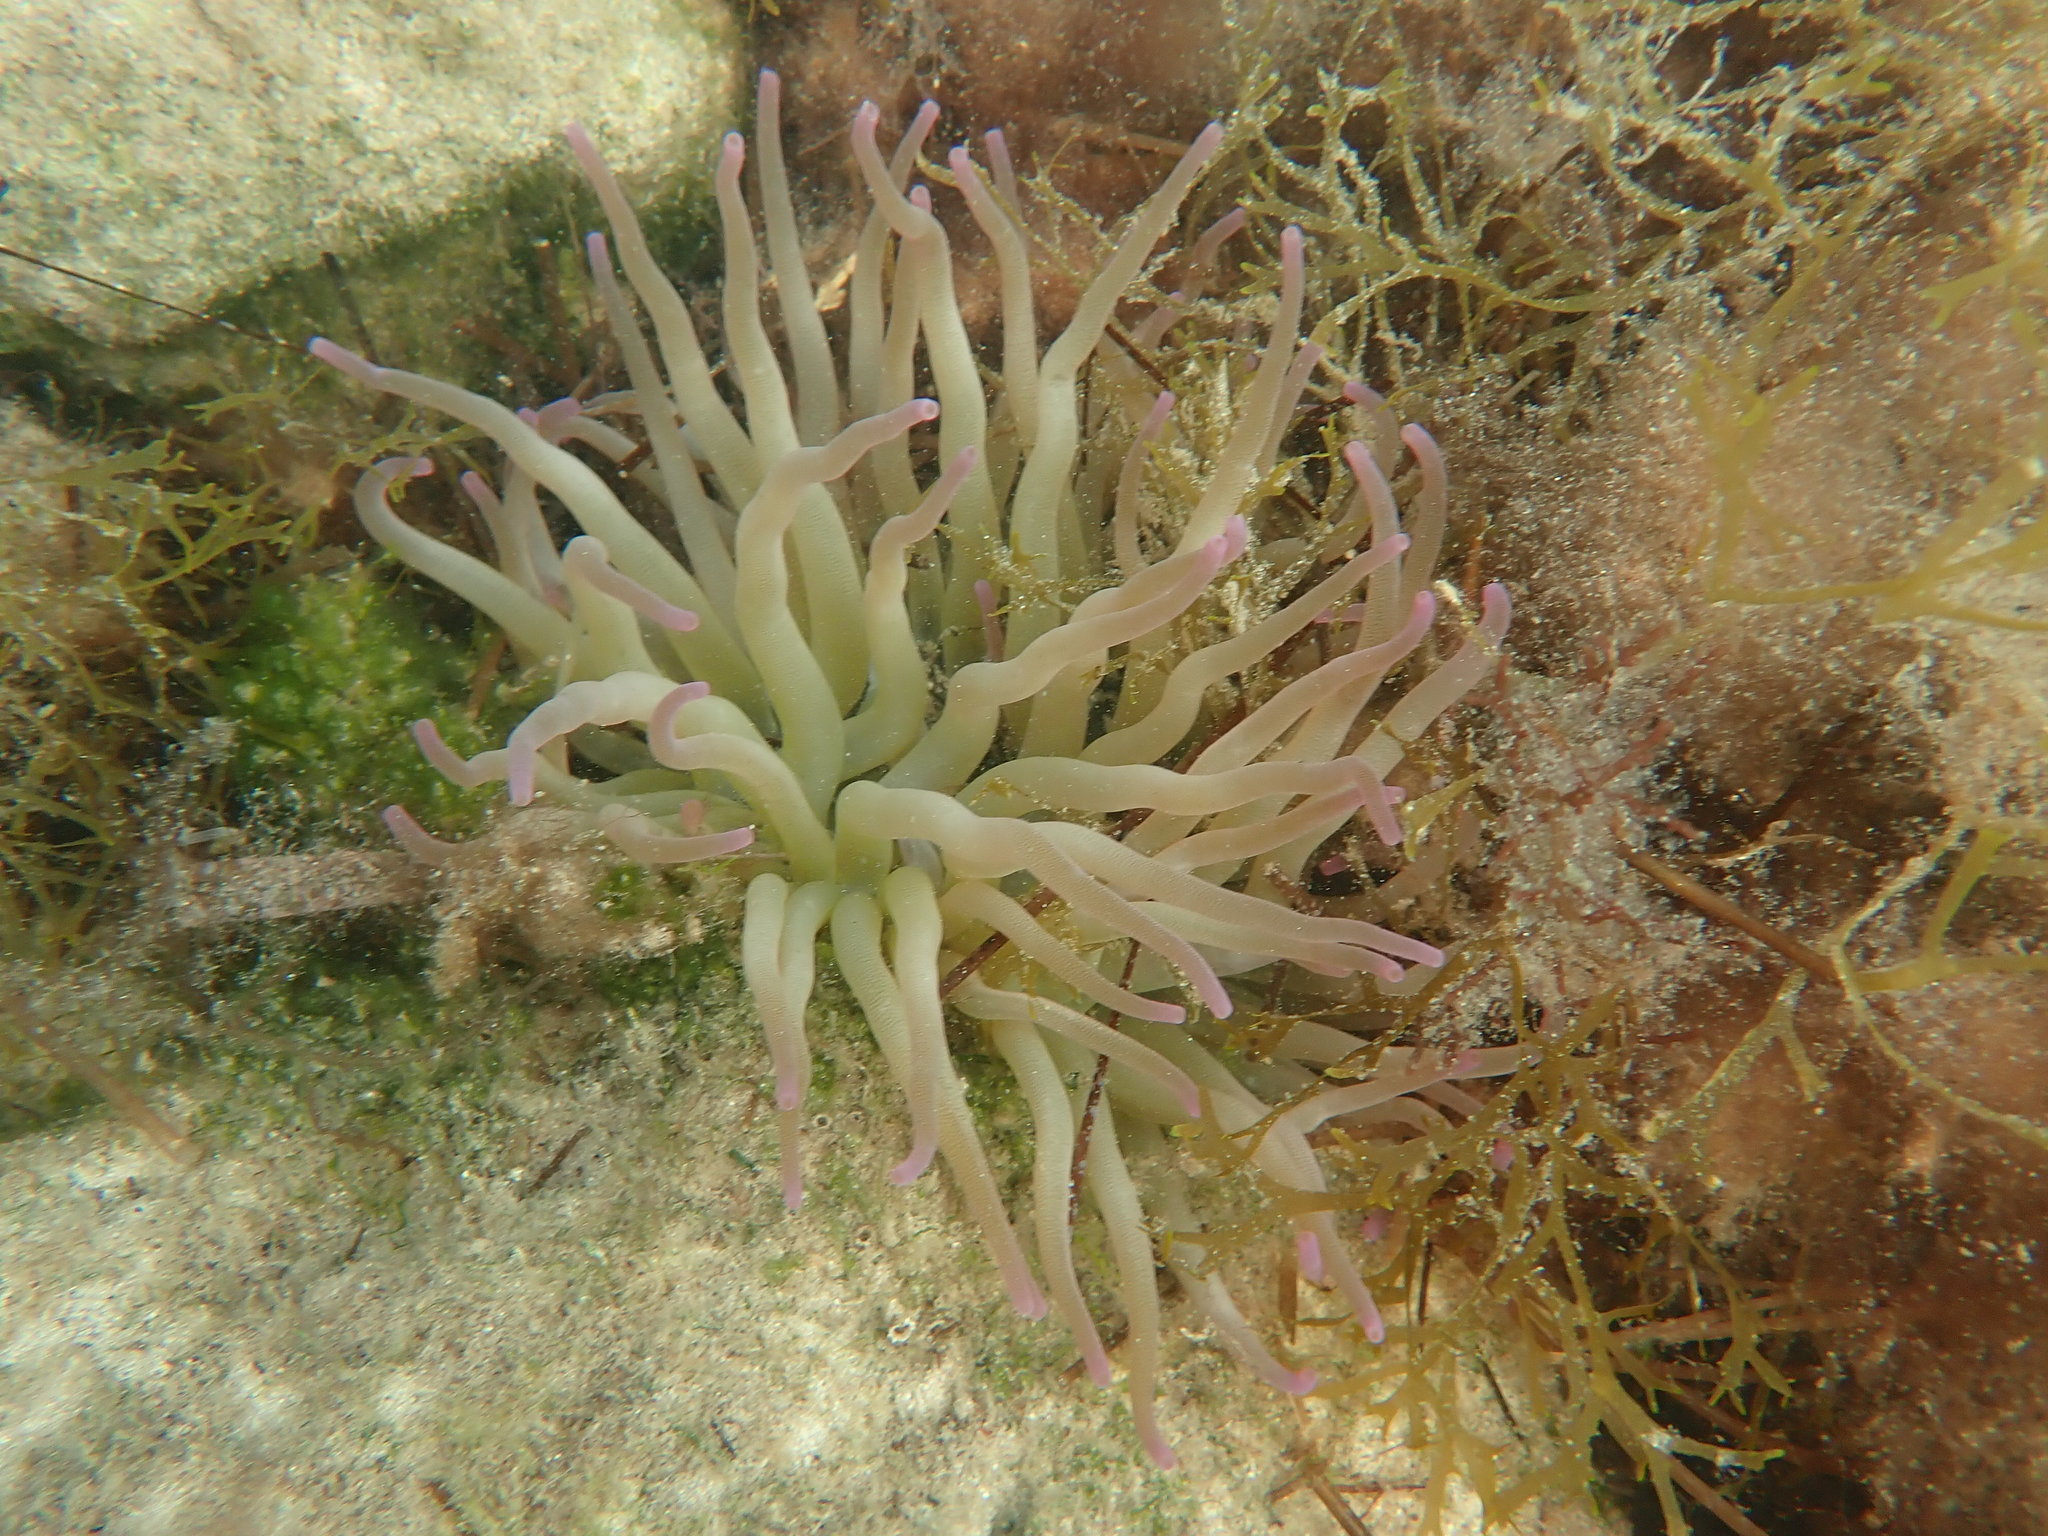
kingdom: Animalia
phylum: Cnidaria
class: Anthozoa
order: Actiniaria
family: Actiniidae
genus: Condylactis
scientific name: Condylactis gigantea
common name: Giant caribbean anemone
